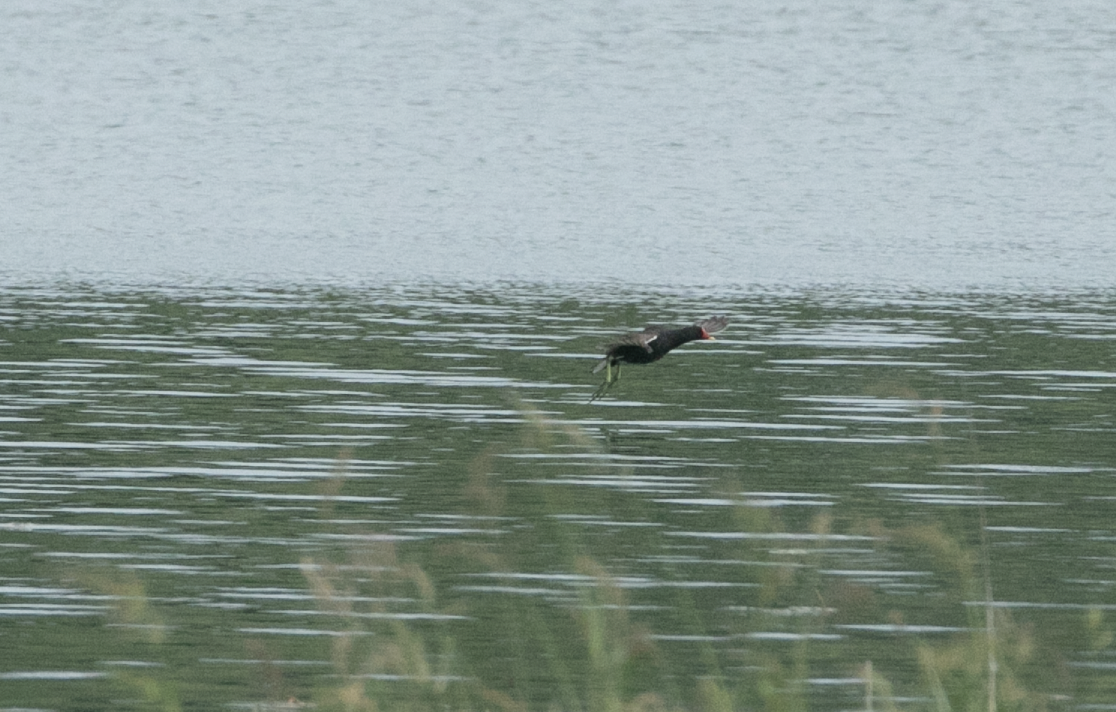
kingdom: Animalia
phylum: Chordata
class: Aves
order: Gruiformes
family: Rallidae
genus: Gallinula
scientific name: Gallinula chloropus
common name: Common moorhen
